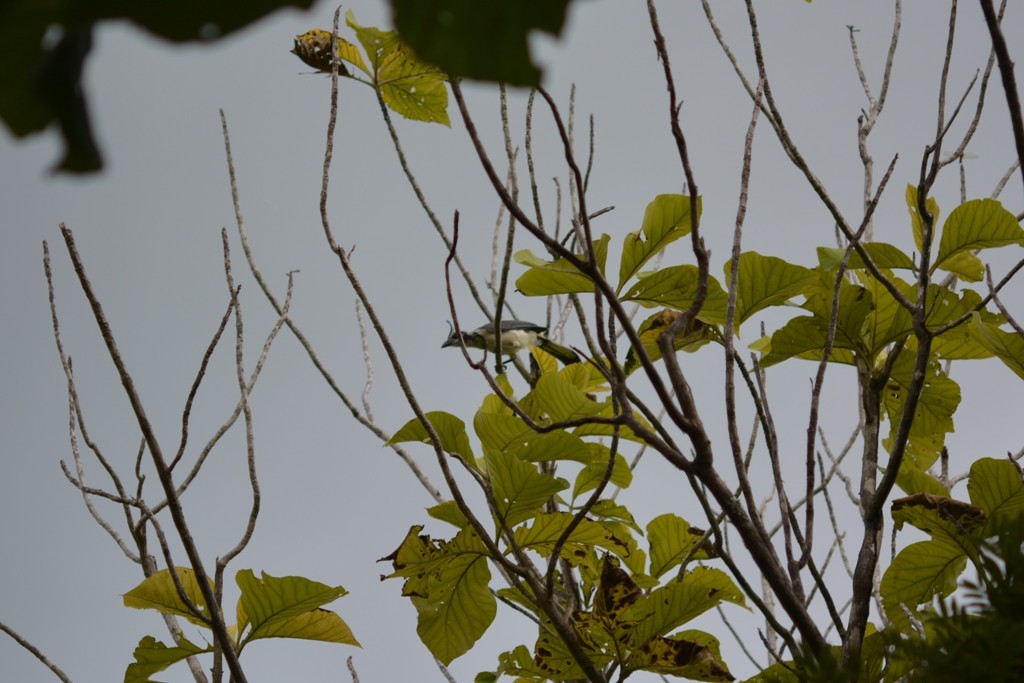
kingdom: Animalia
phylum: Chordata
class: Aves
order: Passeriformes
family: Corvidae
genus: Calocitta
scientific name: Calocitta formosa
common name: White-throated magpie-jay
